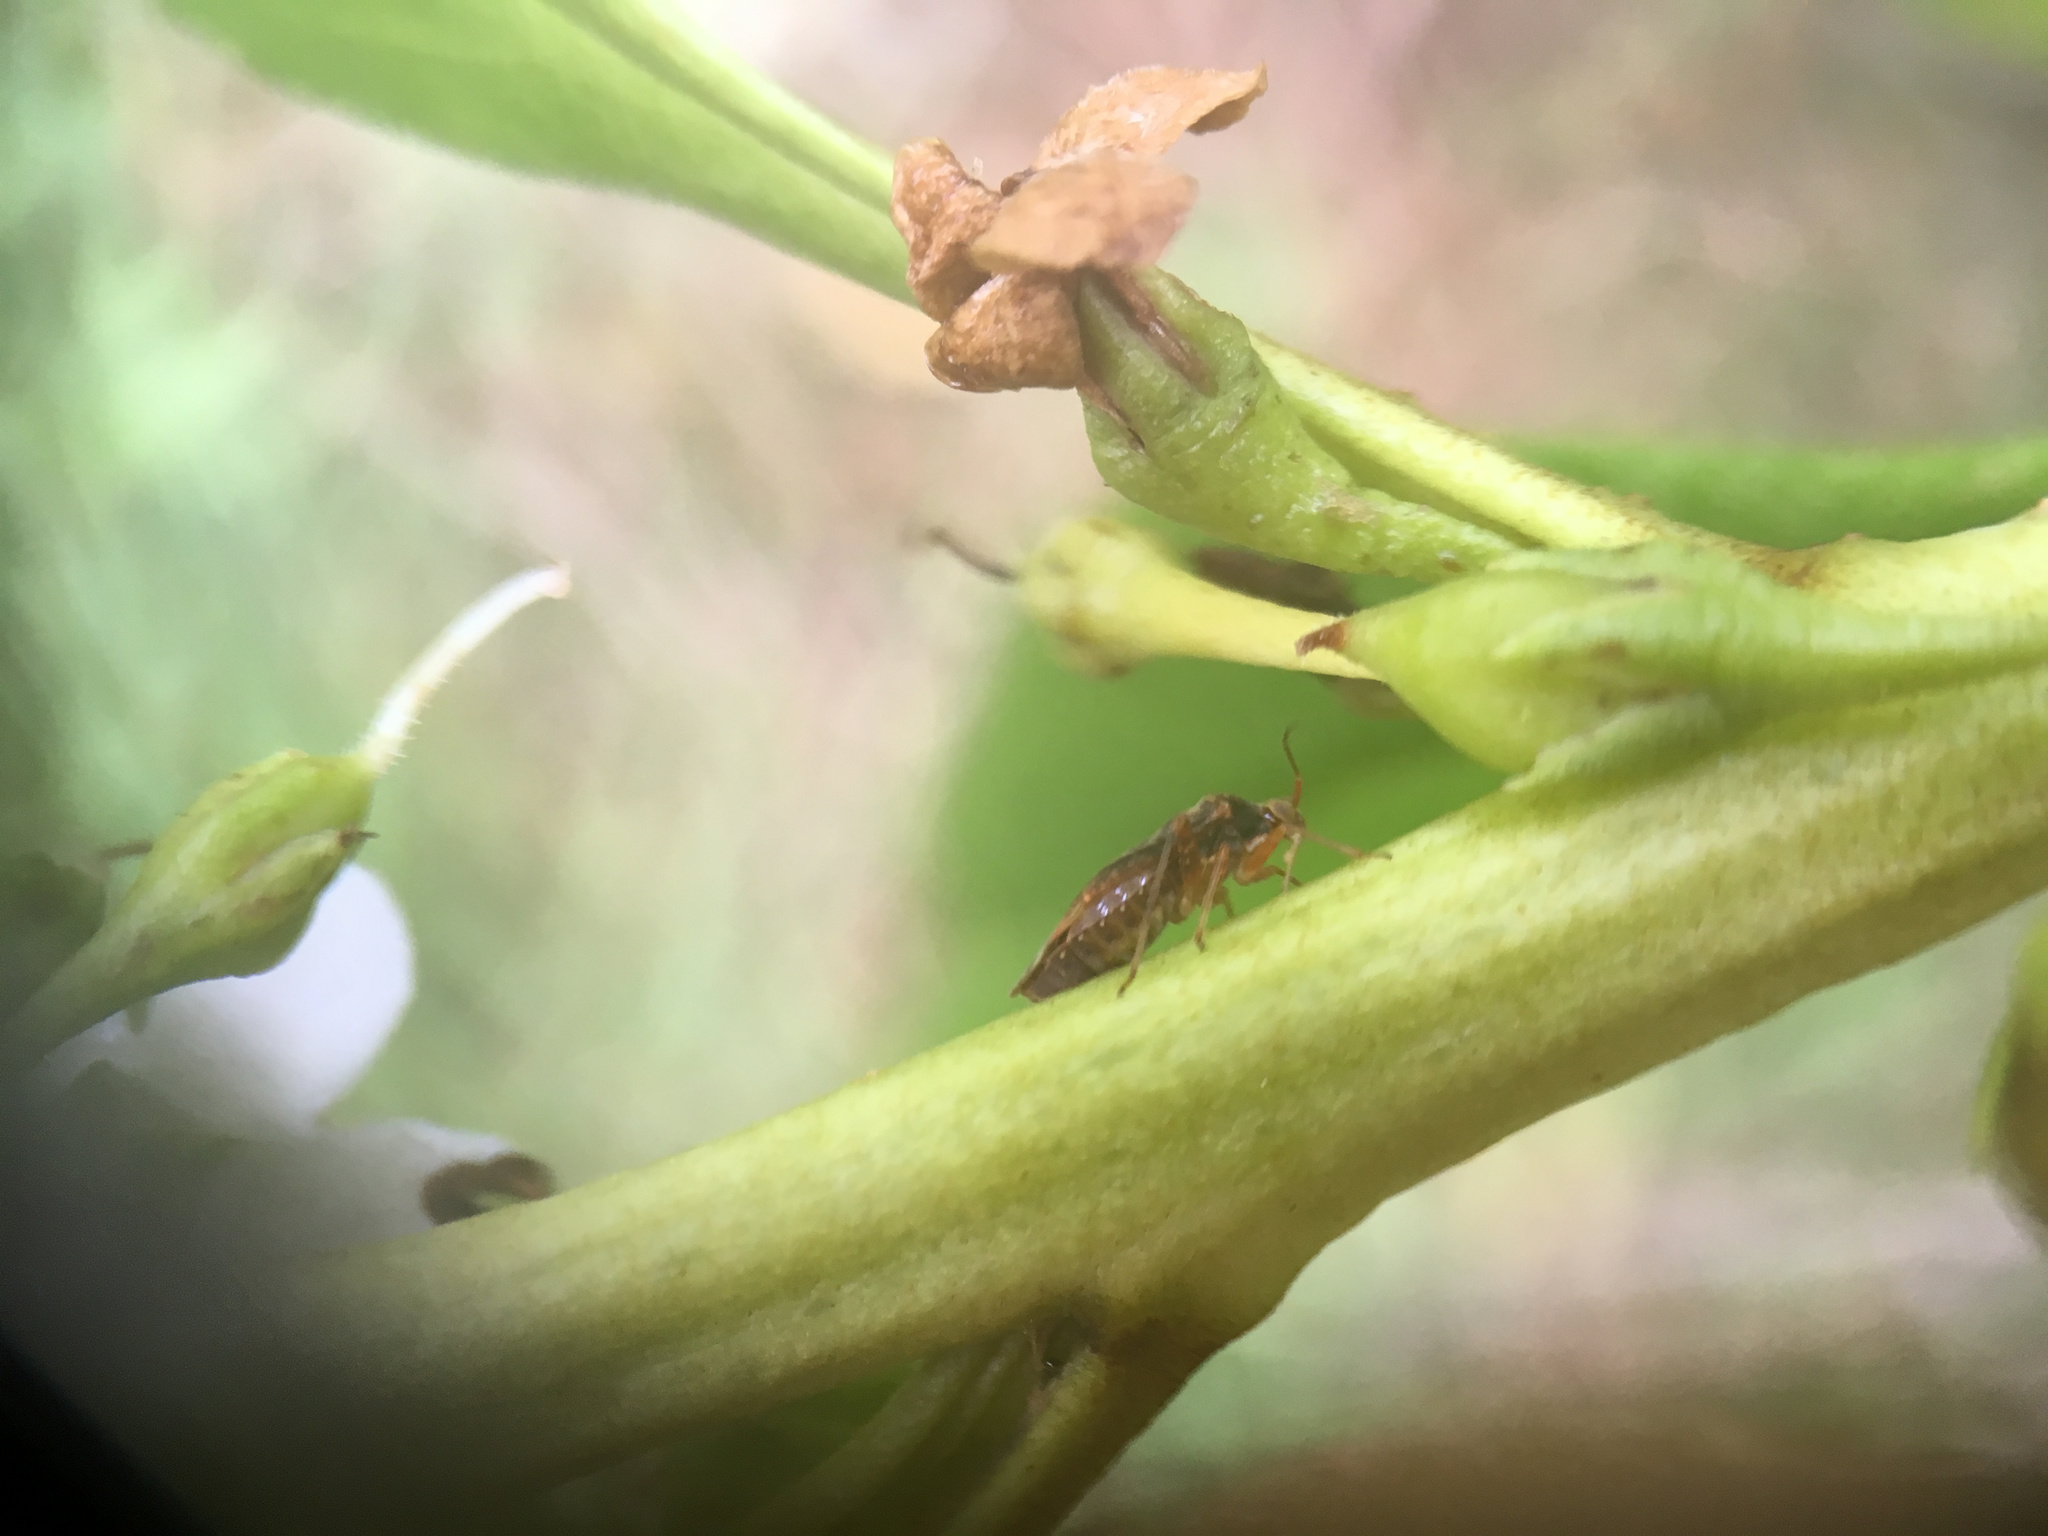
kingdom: Animalia
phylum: Arthropoda
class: Insecta
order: Hemiptera
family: Miridae
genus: Chinamiris
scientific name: Chinamiris aurantiacus
